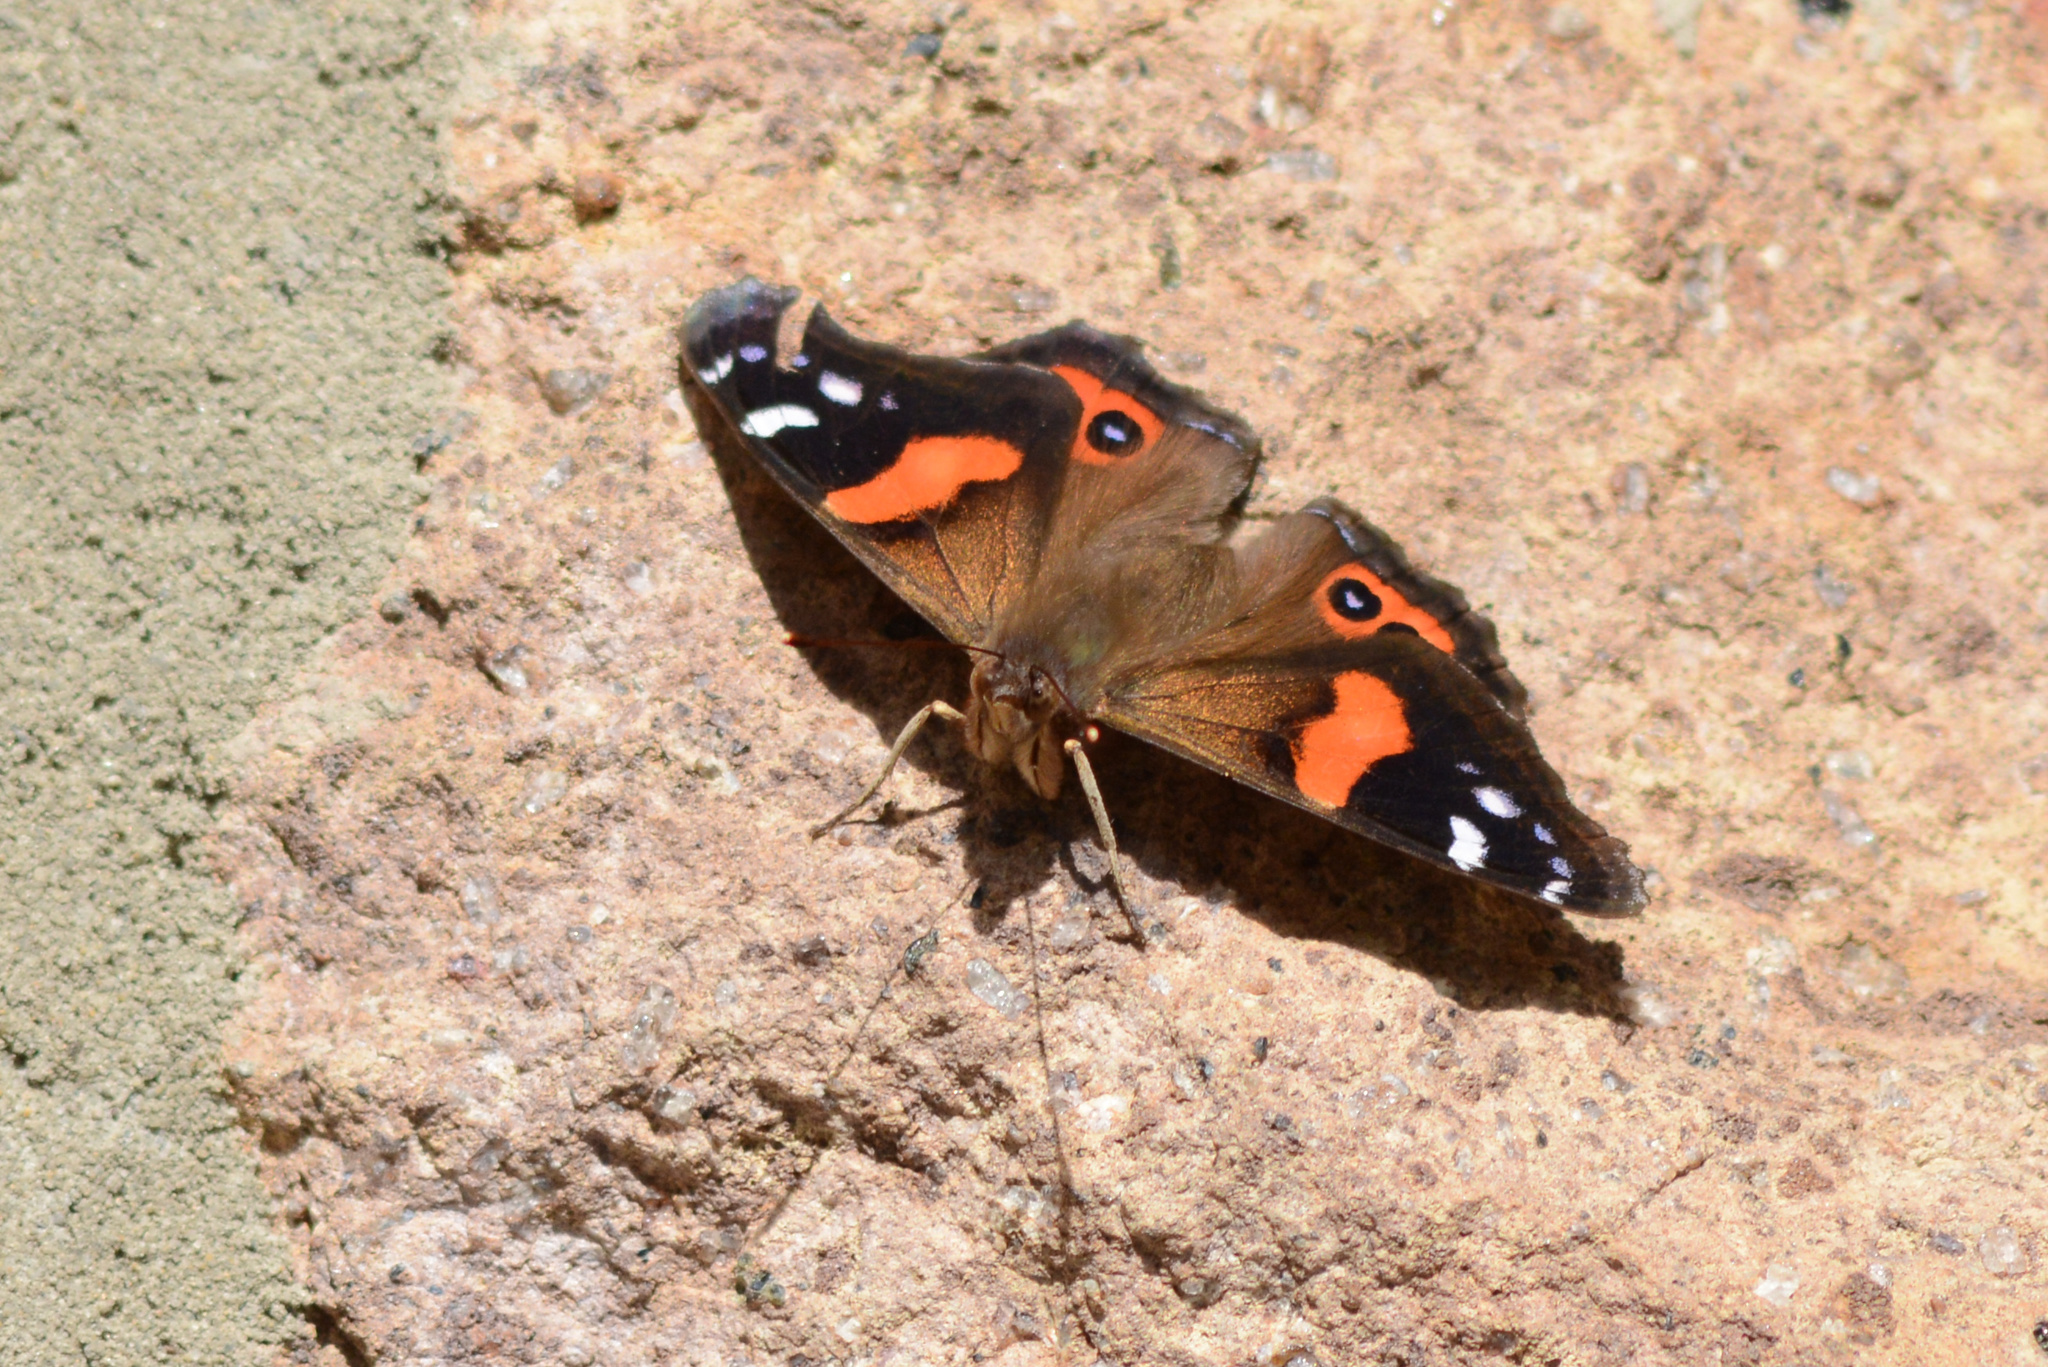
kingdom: Animalia
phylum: Arthropoda
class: Insecta
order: Lepidoptera
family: Nymphalidae
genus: Vanessa
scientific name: Vanessa gonerilla
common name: New zealand red admiral
